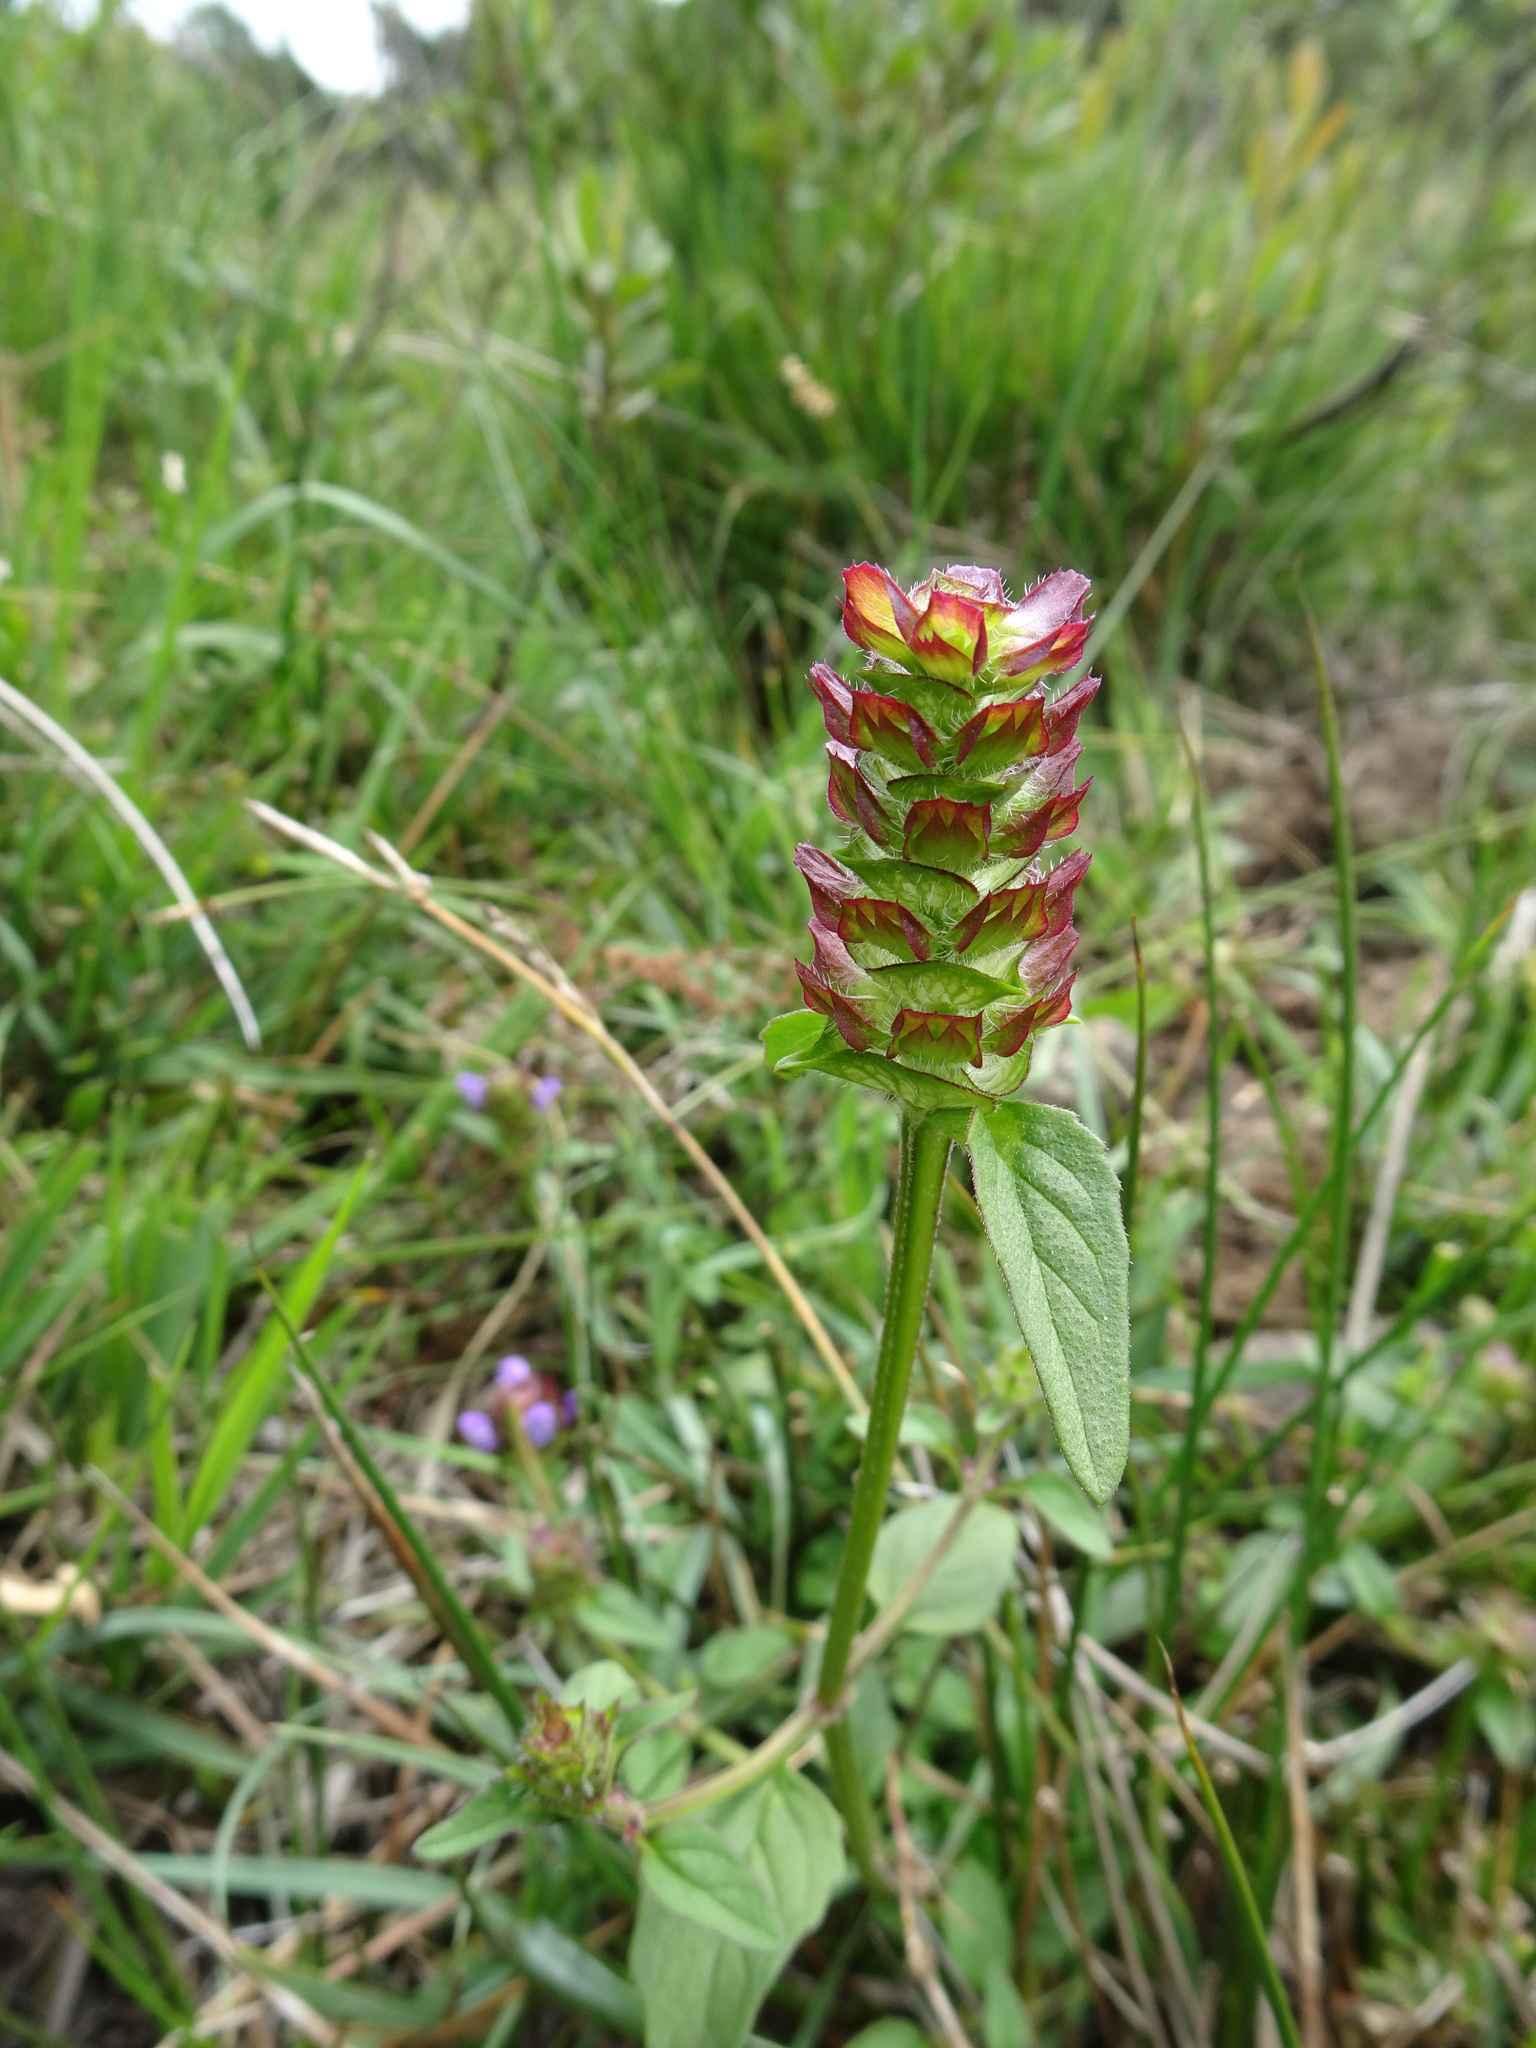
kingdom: Plantae
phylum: Tracheophyta
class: Magnoliopsida
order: Lamiales
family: Lamiaceae
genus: Prunella
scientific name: Prunella vulgaris
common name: Heal-all
